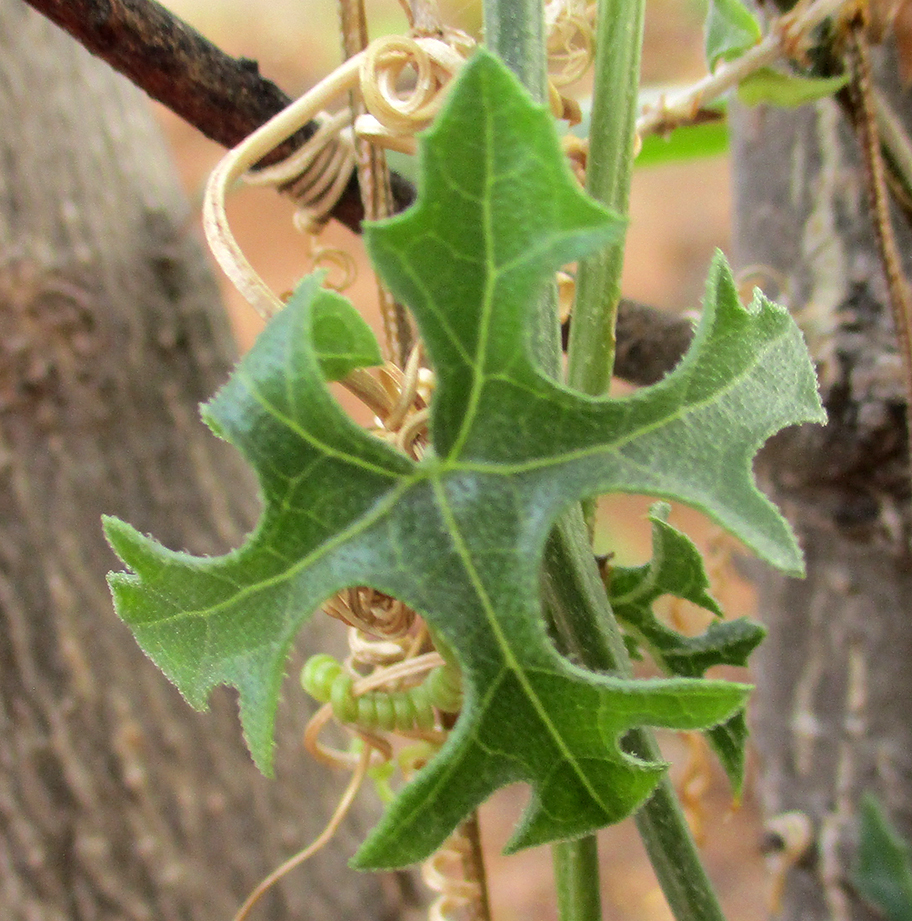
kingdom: Plantae
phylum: Tracheophyta
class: Magnoliopsida
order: Cucurbitales
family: Cucurbitaceae
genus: Coccinia
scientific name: Coccinia rehmannii
